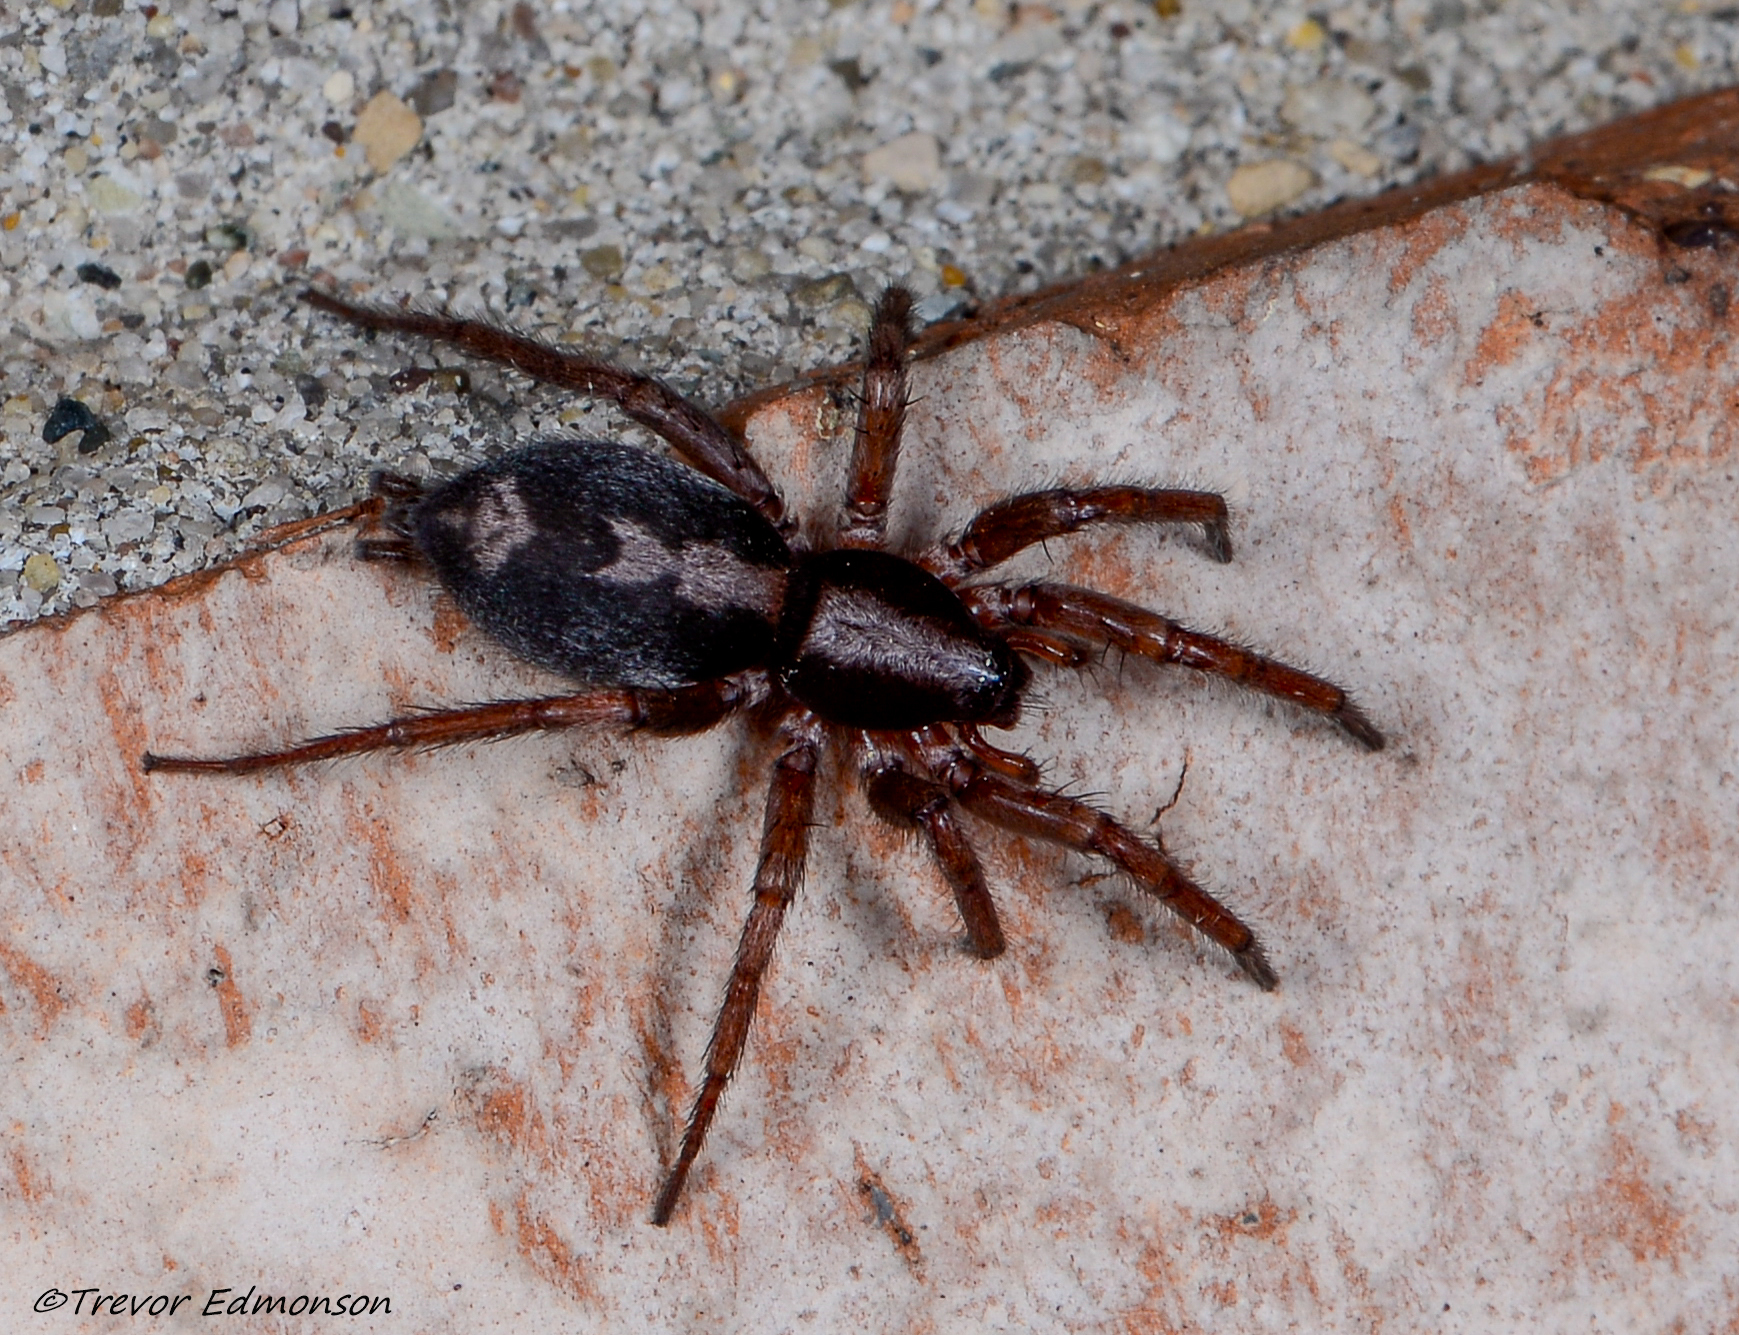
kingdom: Animalia
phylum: Arthropoda
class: Arachnida
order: Araneae
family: Gnaphosidae
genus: Herpyllus
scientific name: Herpyllus ecclesiasticus
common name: Eastern parson spider
